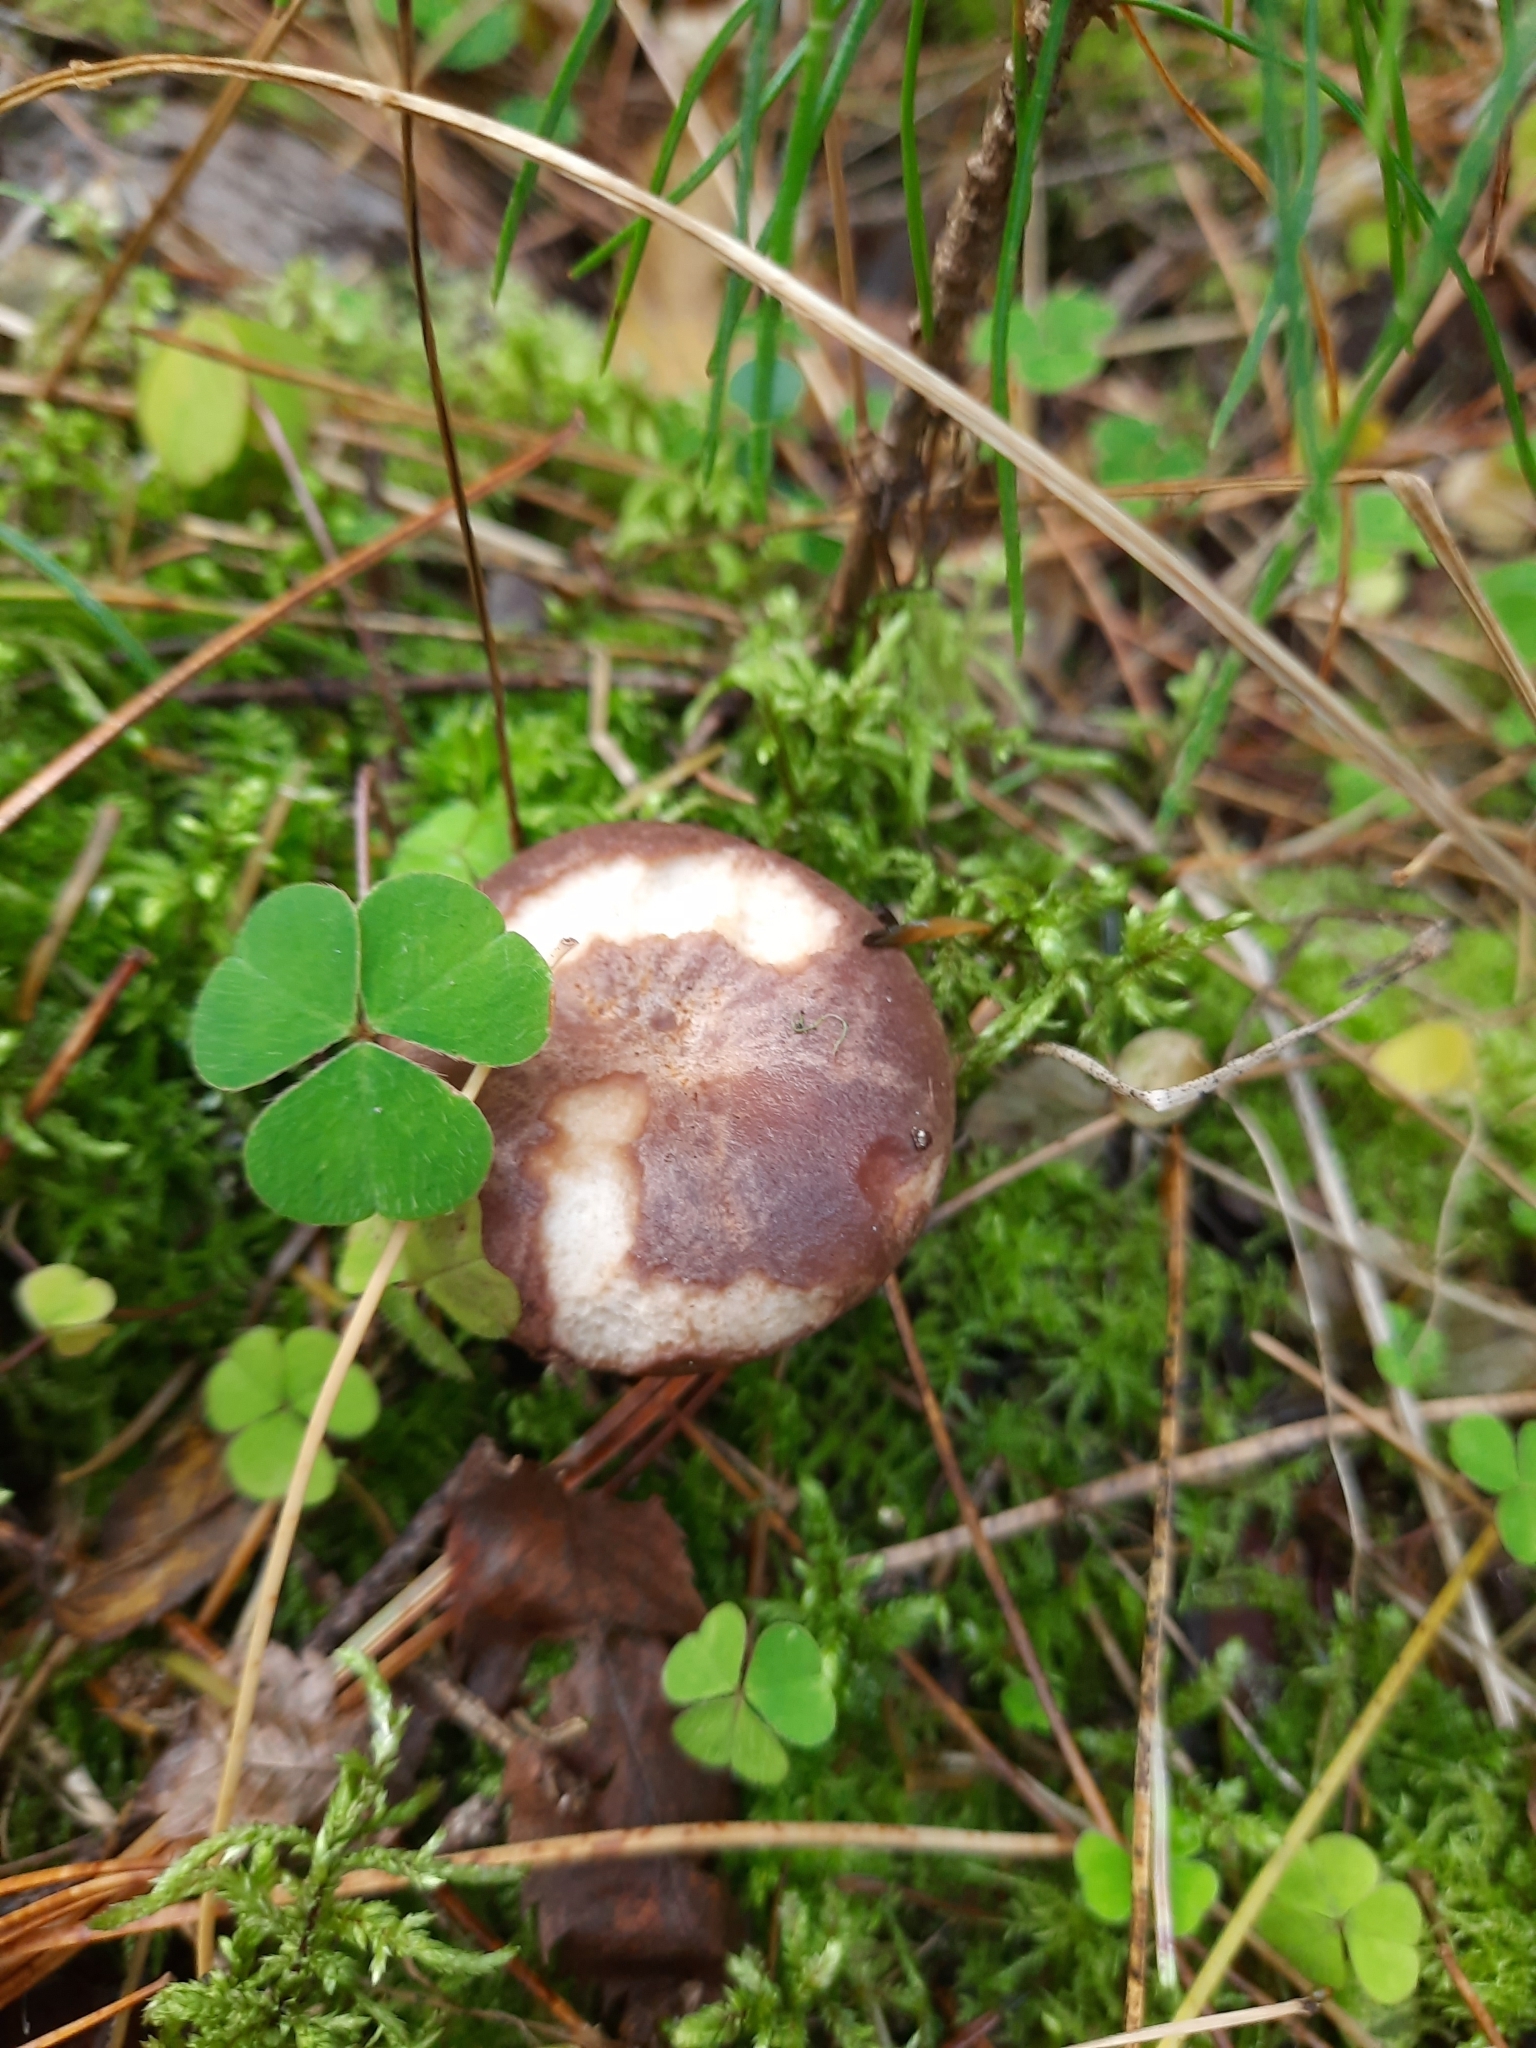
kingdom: Fungi
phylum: Basidiomycota
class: Agaricomycetes
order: Russulales
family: Russulaceae
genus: Lactarius
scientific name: Lactarius trivialis
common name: Tacked milkcap
